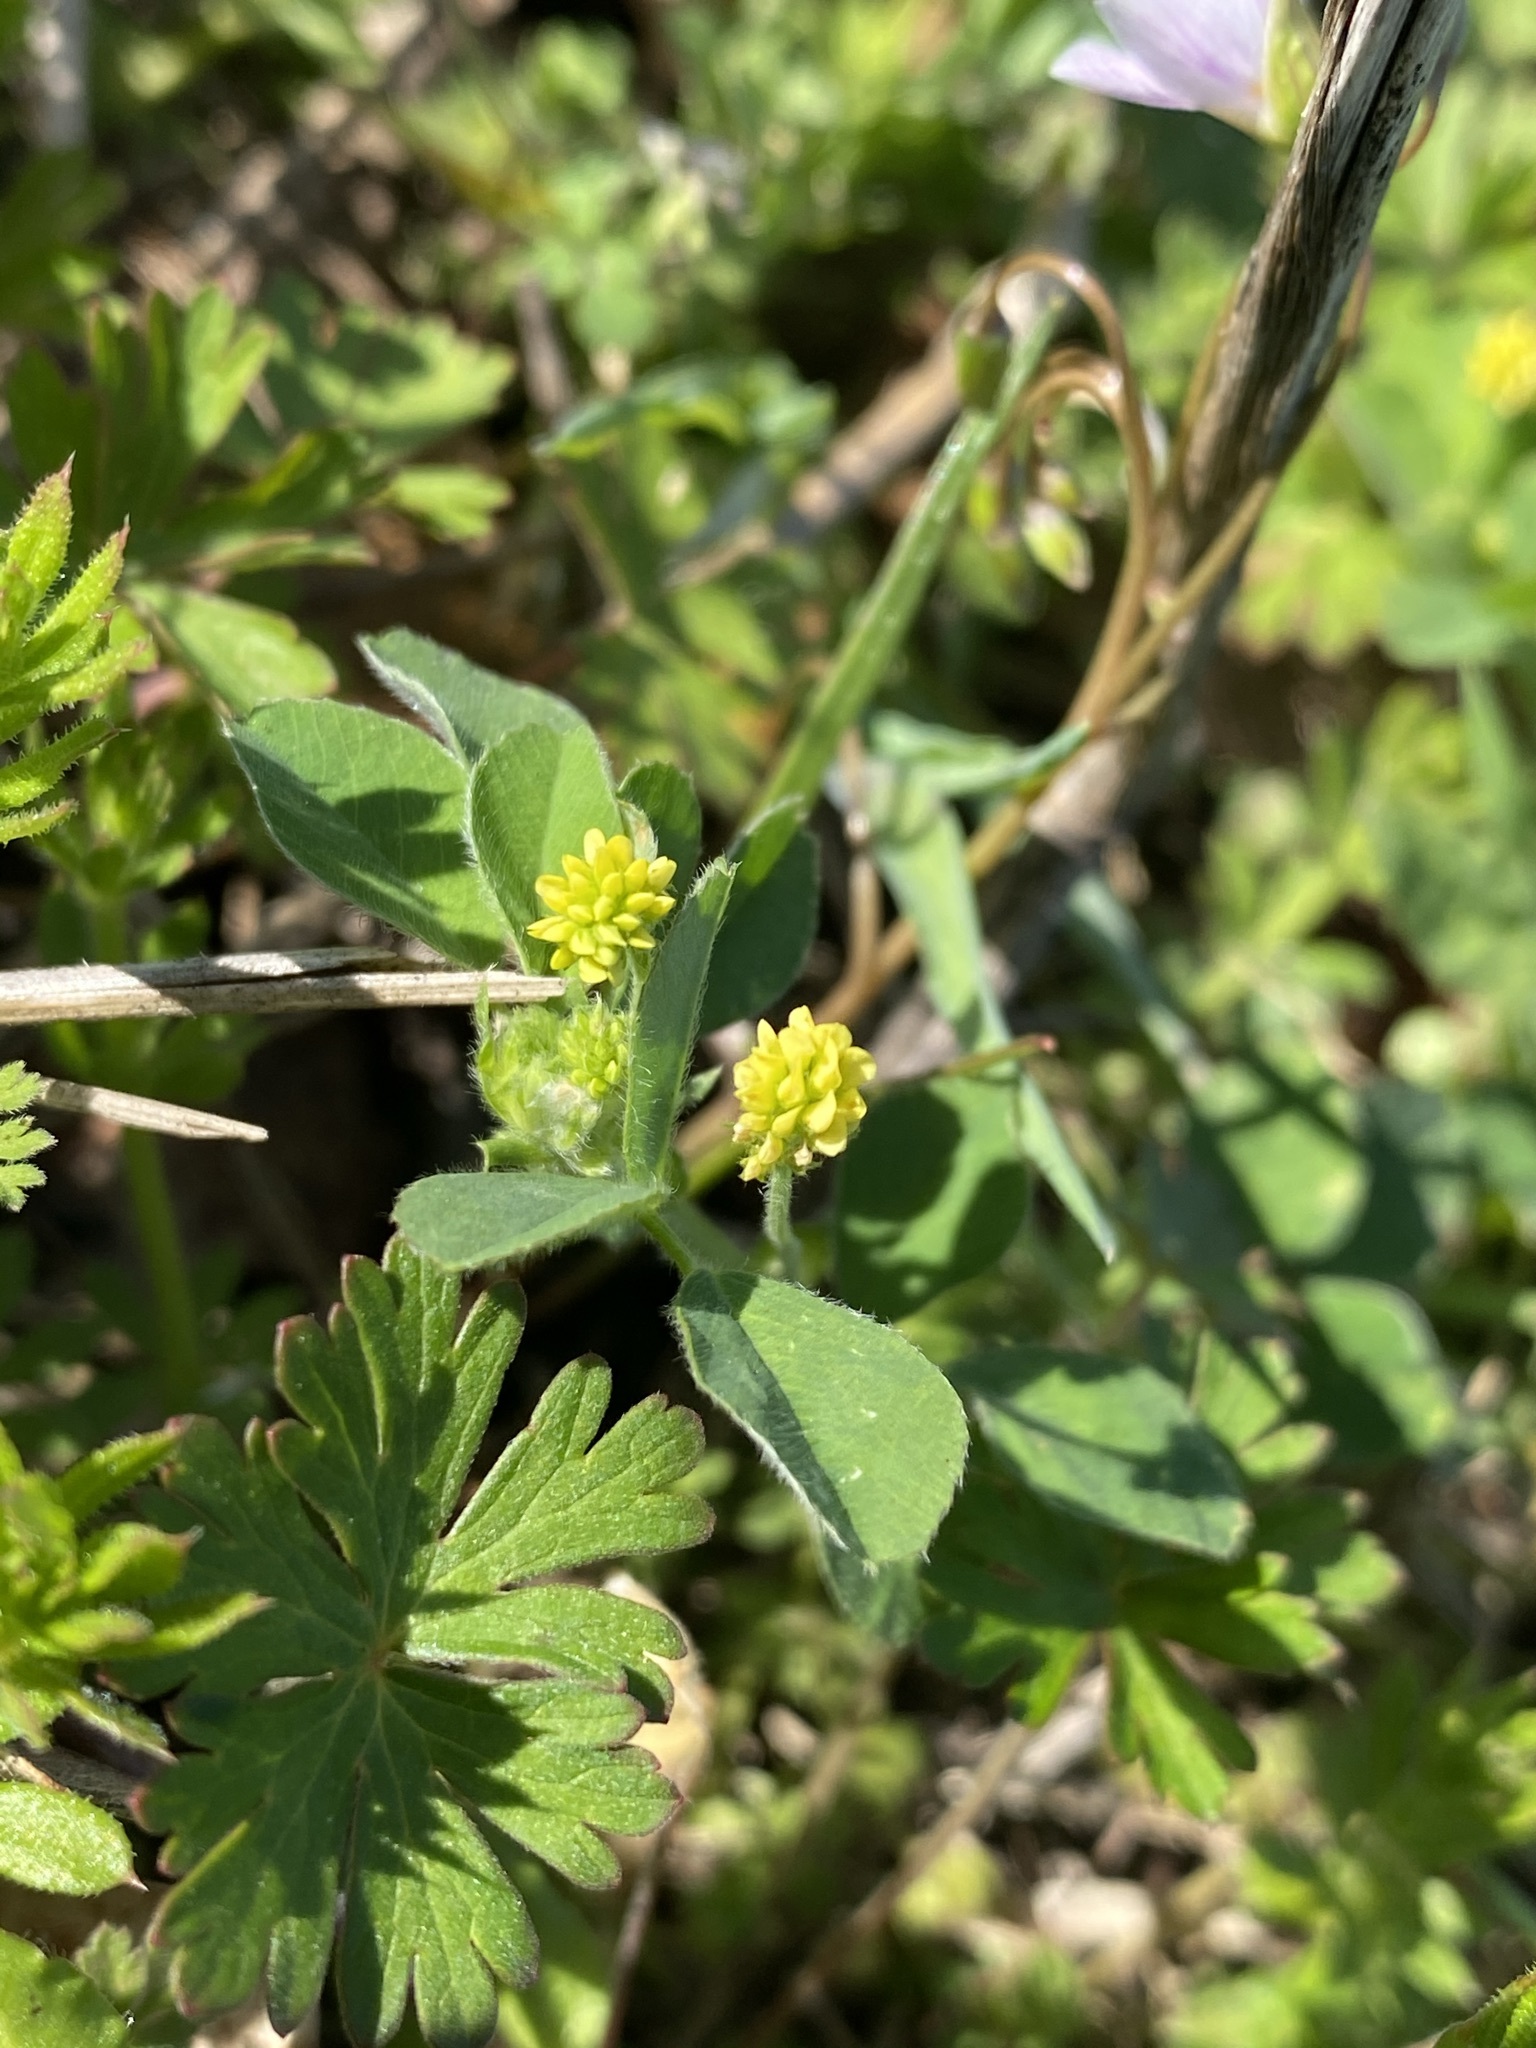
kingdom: Plantae
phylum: Tracheophyta
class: Magnoliopsida
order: Fabales
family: Fabaceae
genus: Medicago
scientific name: Medicago lupulina
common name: Black medick
